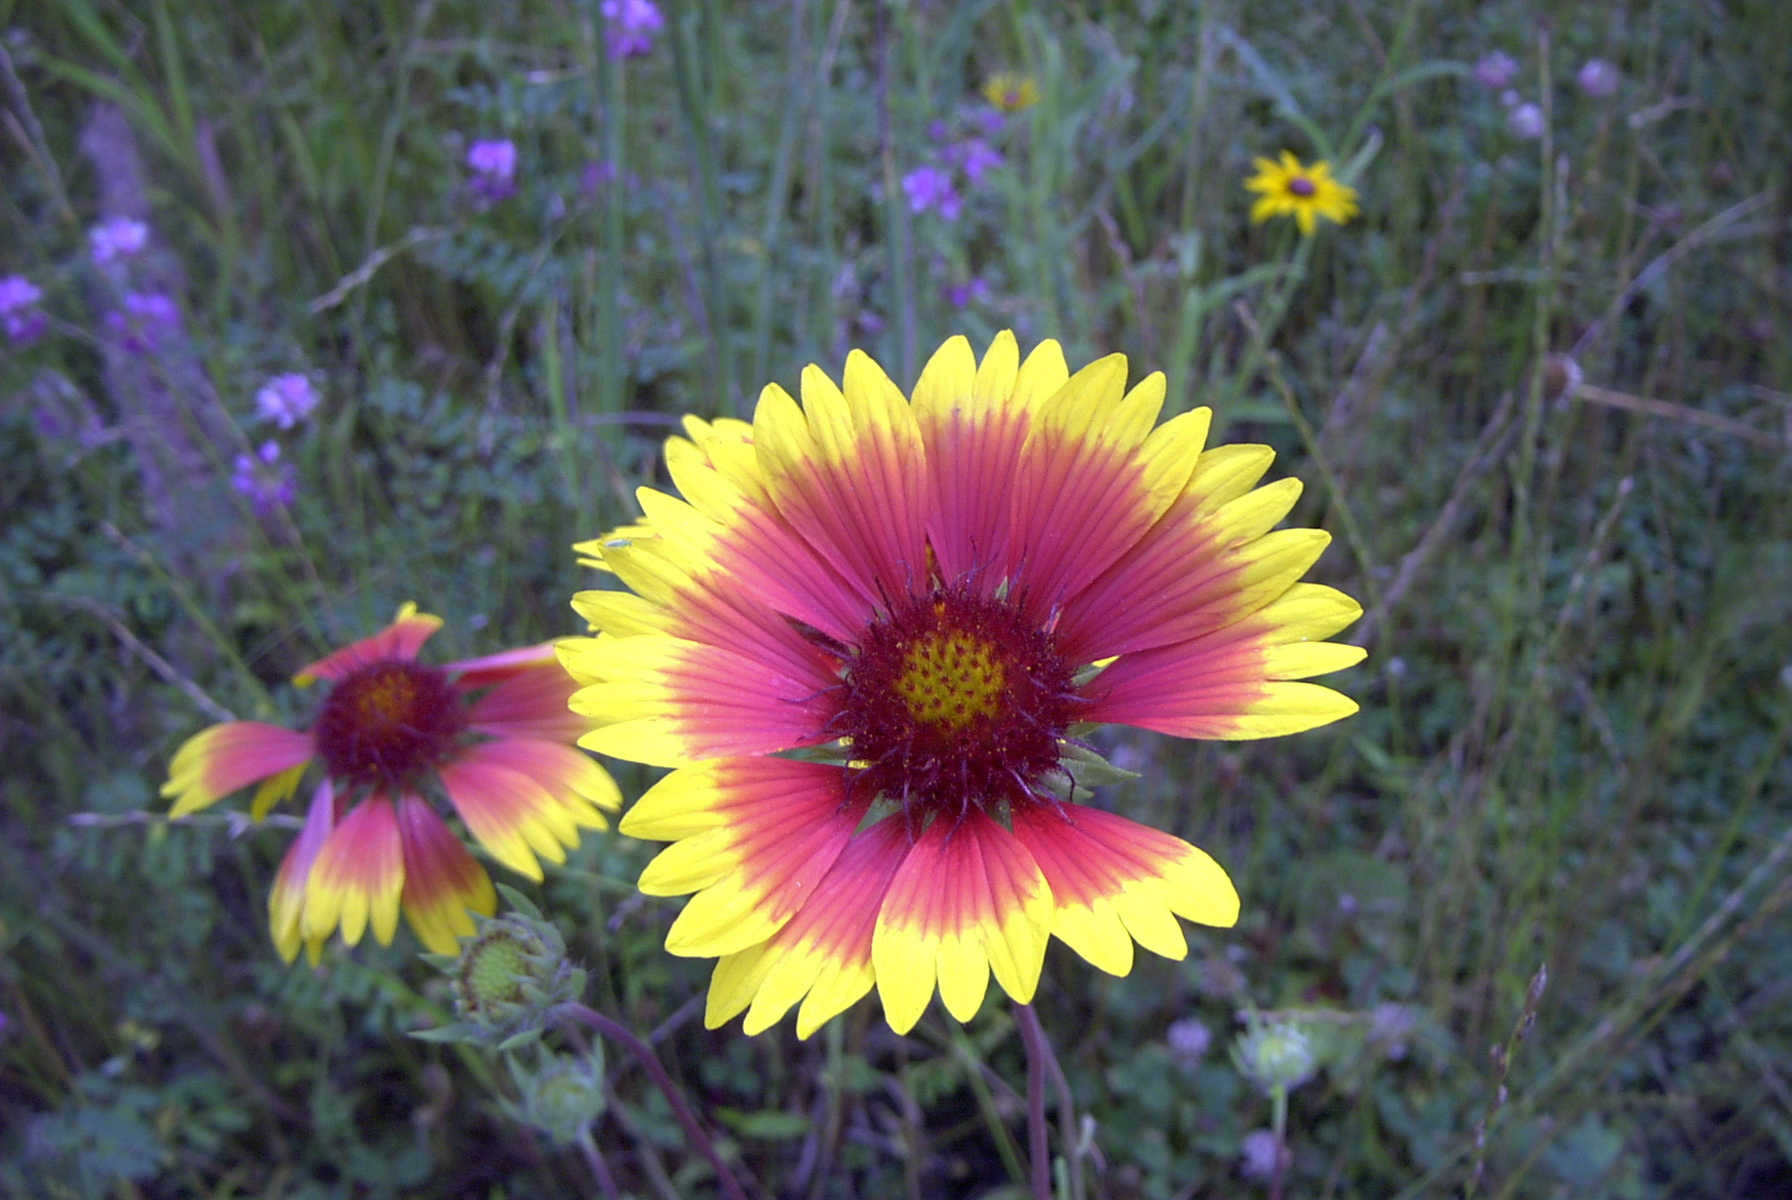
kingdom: Plantae
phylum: Tracheophyta
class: Magnoliopsida
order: Asterales
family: Asteraceae
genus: Gaillardia
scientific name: Gaillardia pulchella
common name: Firewheel
